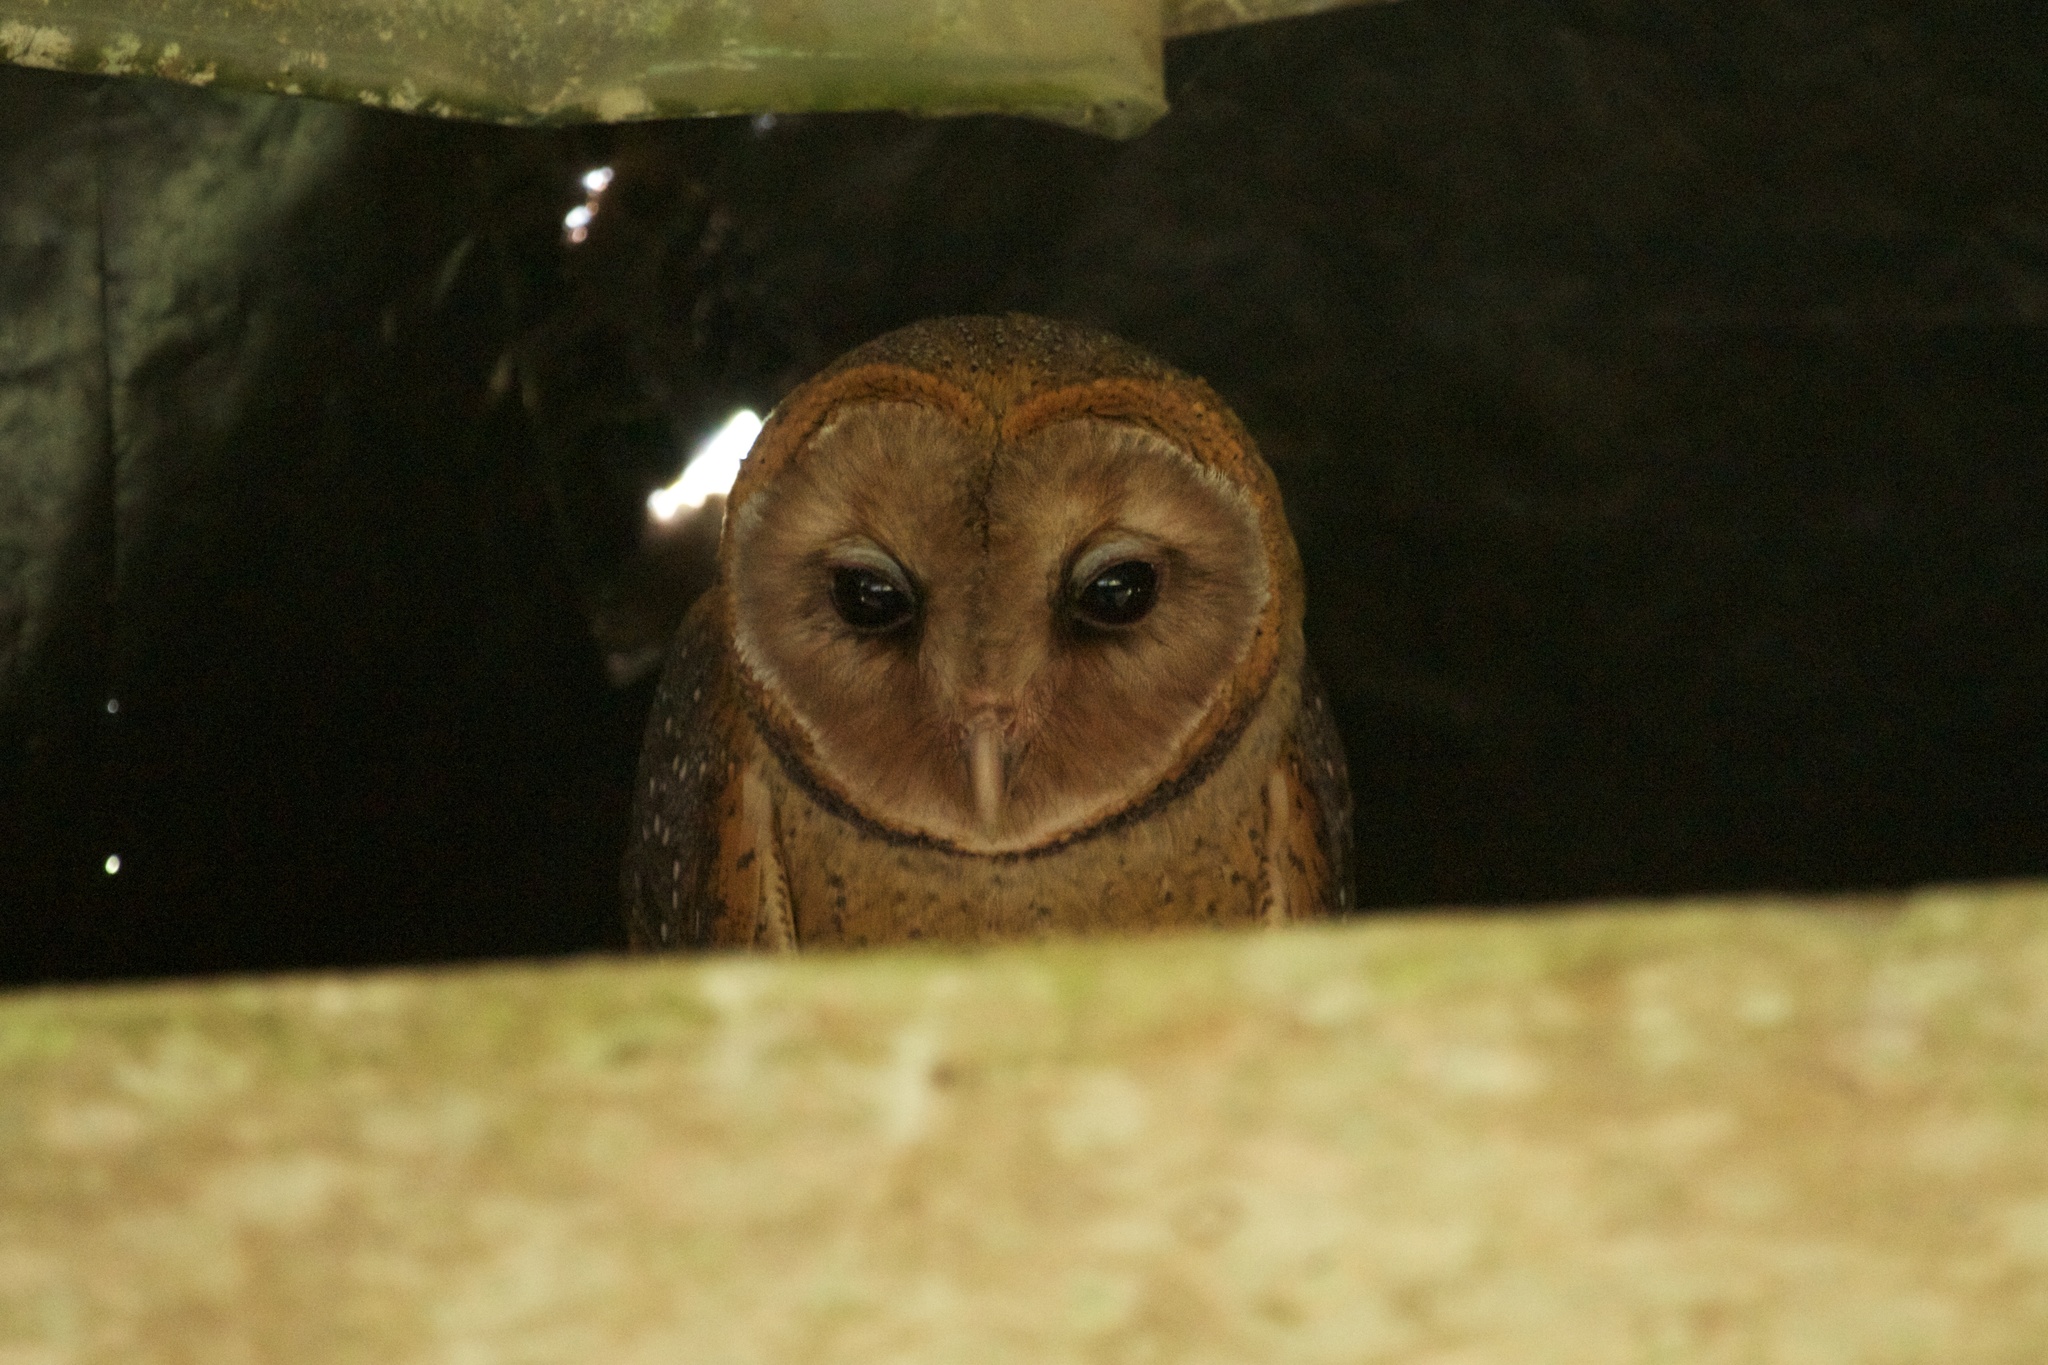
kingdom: Animalia
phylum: Chordata
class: Aves
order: Strigiformes
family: Tytonidae
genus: Tyto
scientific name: Tyto furcata
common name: American barn owl
